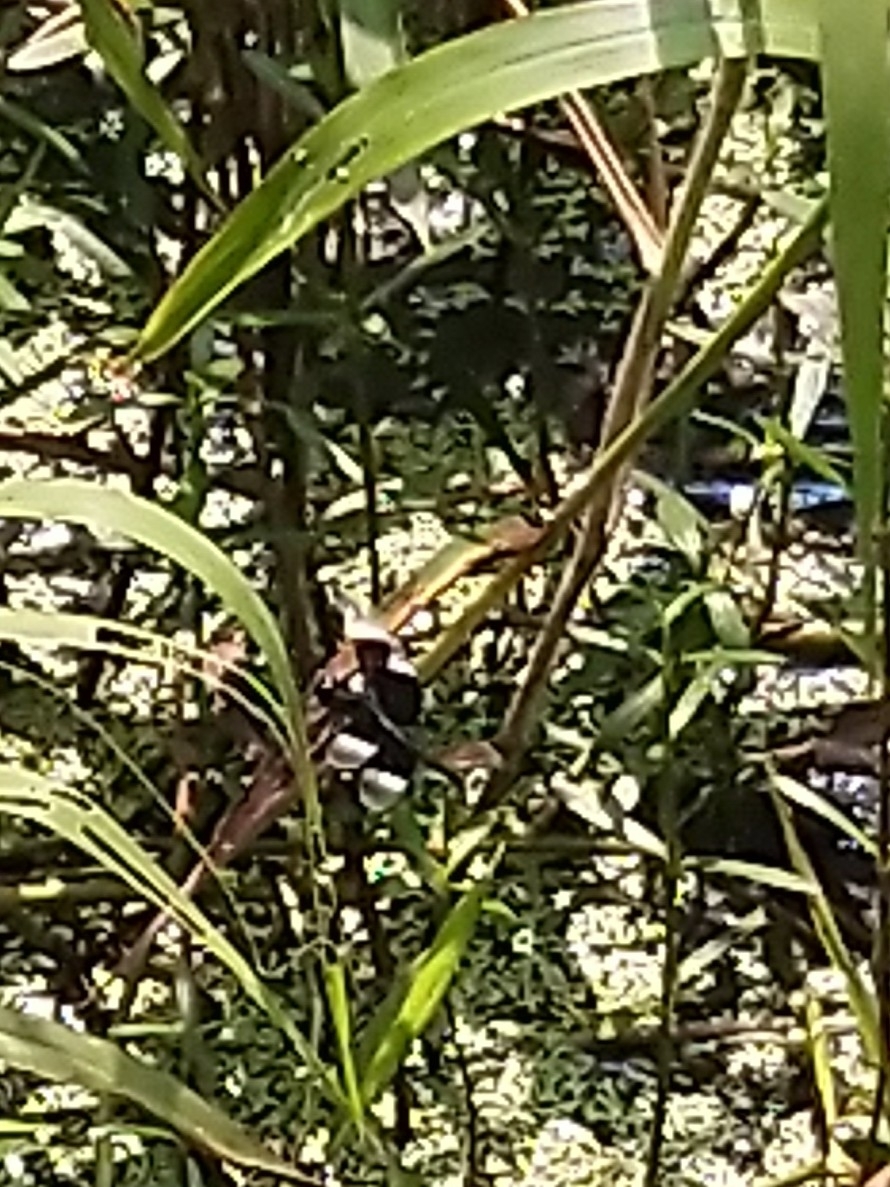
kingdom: Animalia
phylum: Arthropoda
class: Insecta
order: Odonata
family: Libellulidae
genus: Neurothemis
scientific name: Neurothemis tullia
